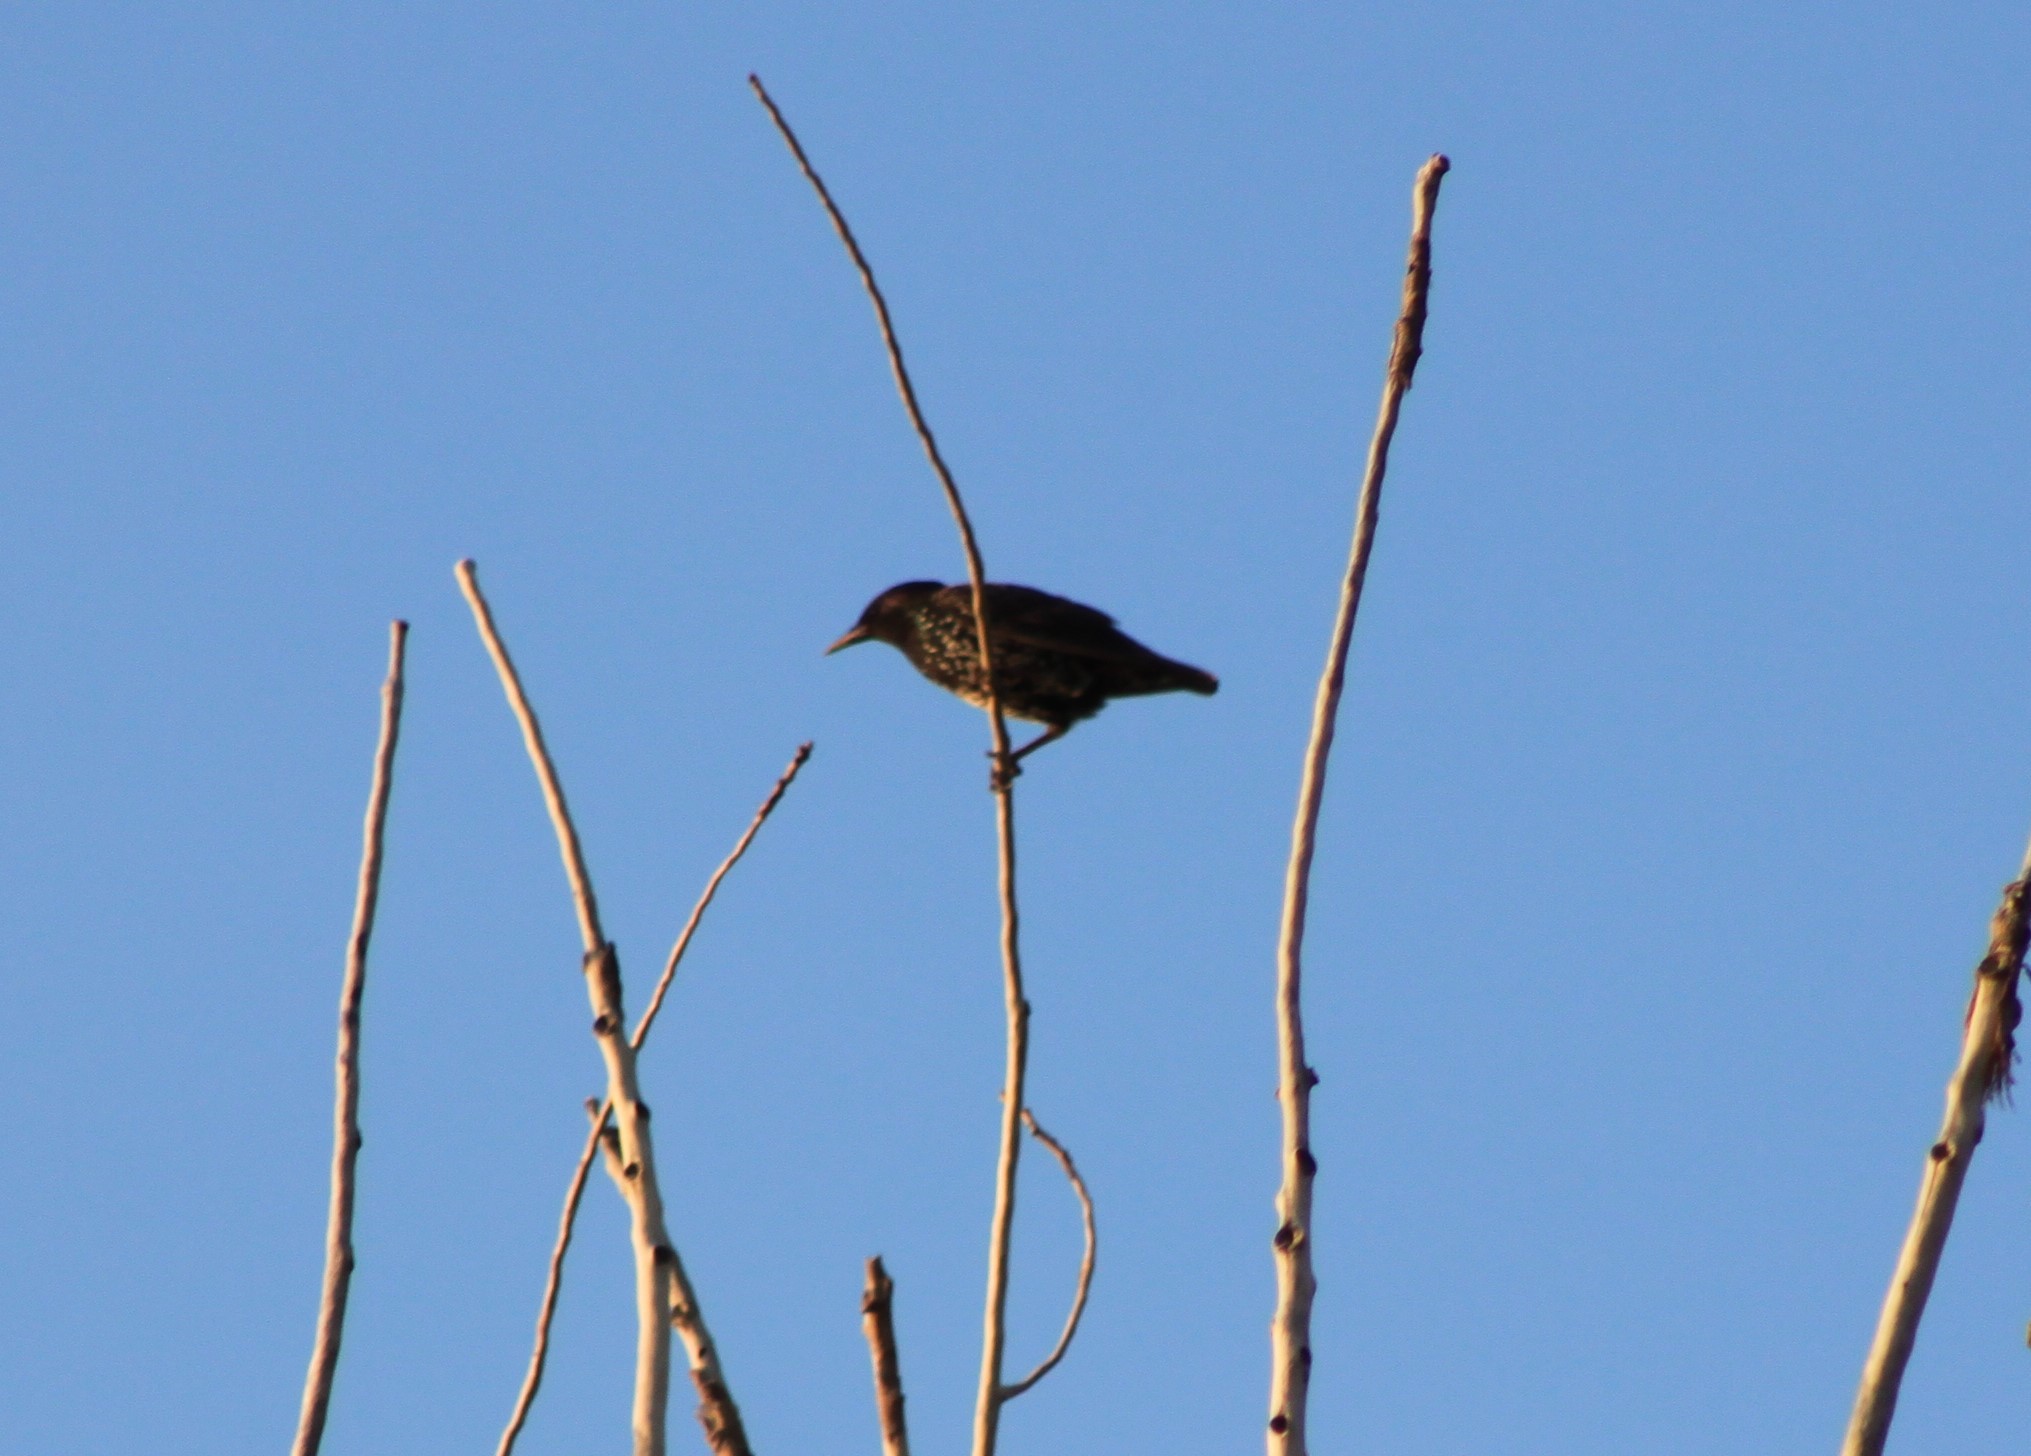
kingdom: Animalia
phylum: Chordata
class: Aves
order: Passeriformes
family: Sturnidae
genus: Sturnus
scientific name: Sturnus vulgaris
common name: Common starling
